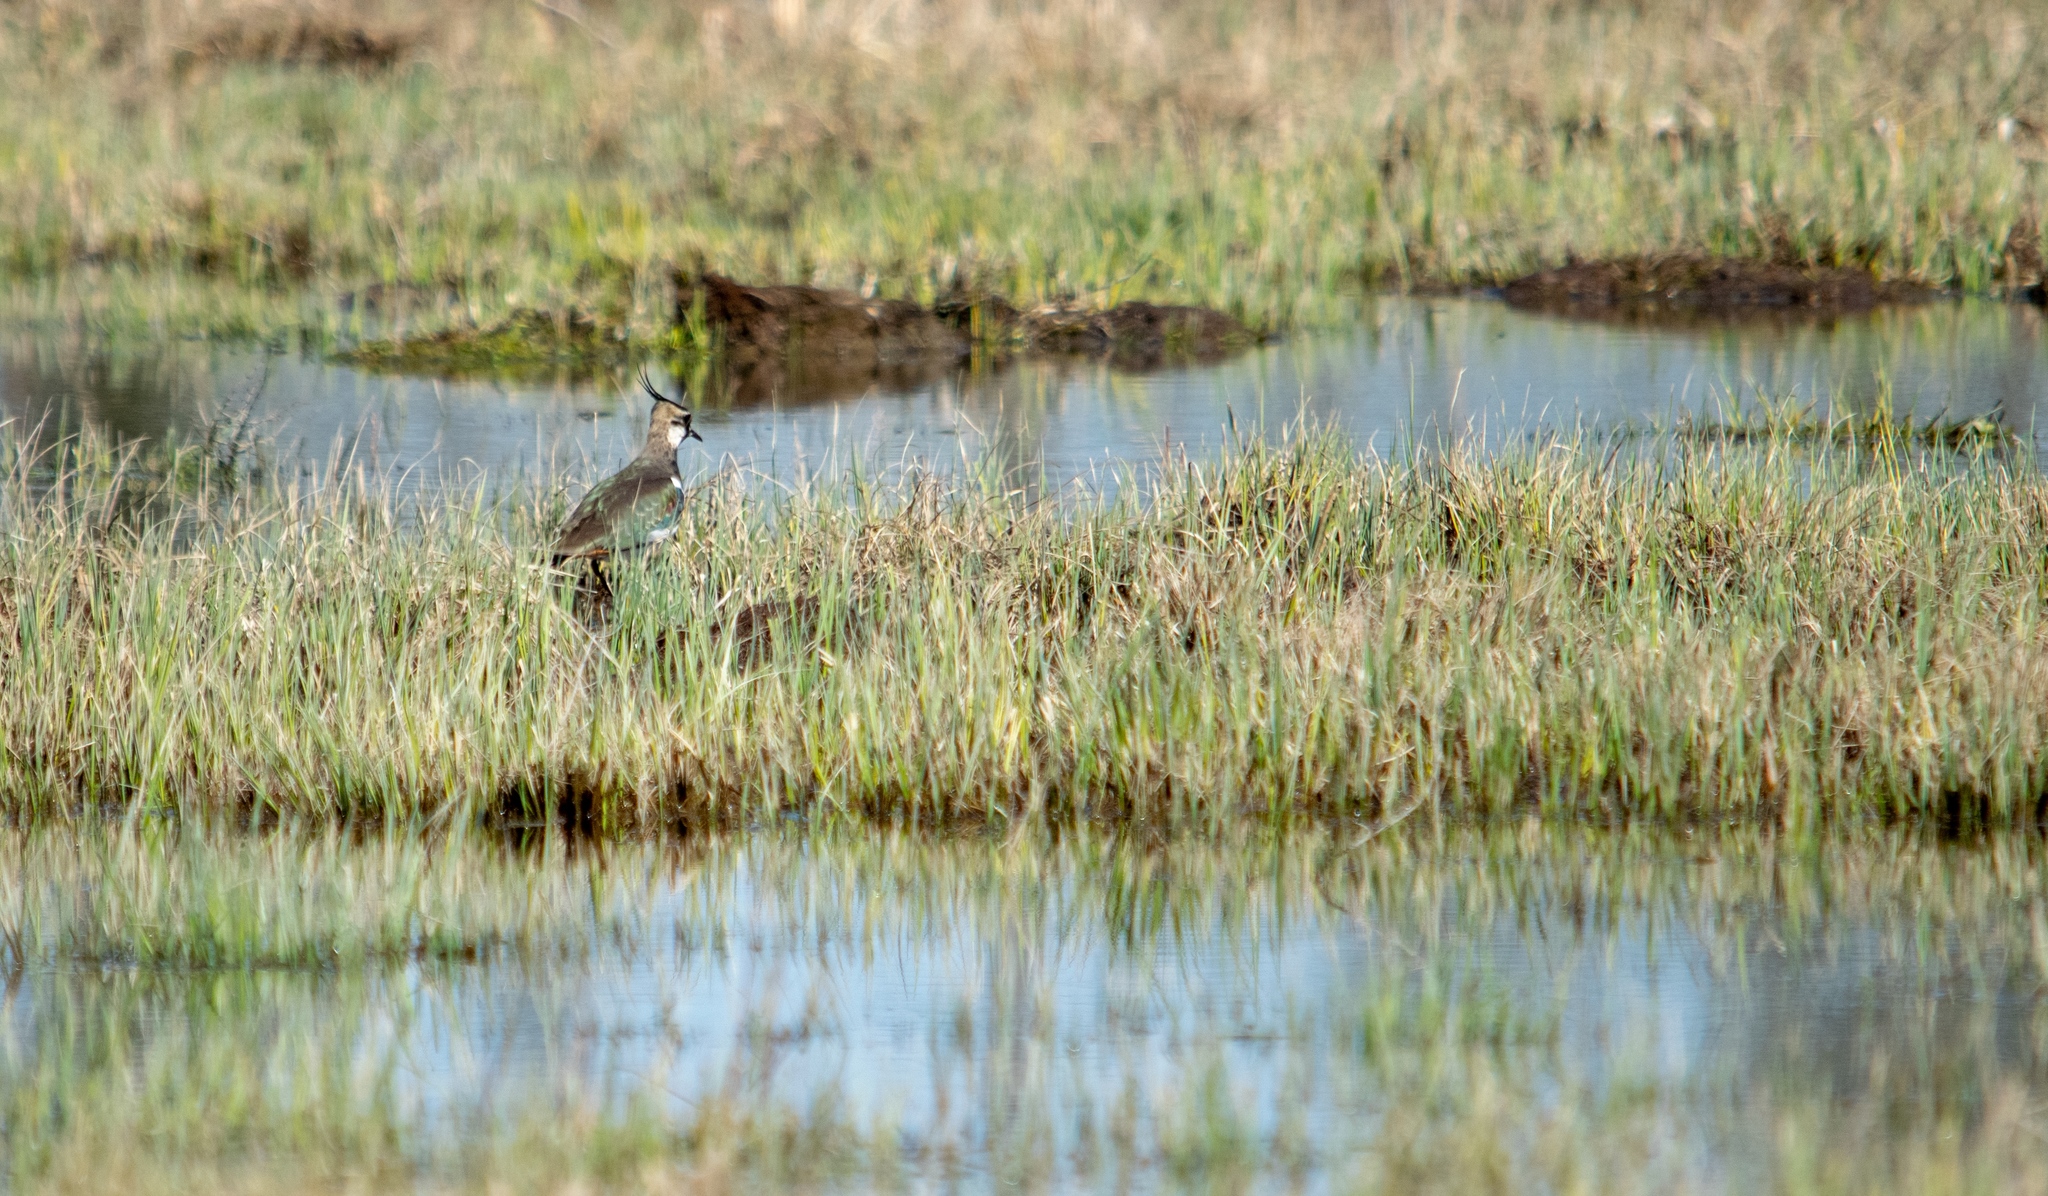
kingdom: Animalia
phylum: Chordata
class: Aves
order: Charadriiformes
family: Charadriidae
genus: Vanellus
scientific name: Vanellus vanellus
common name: Northern lapwing
